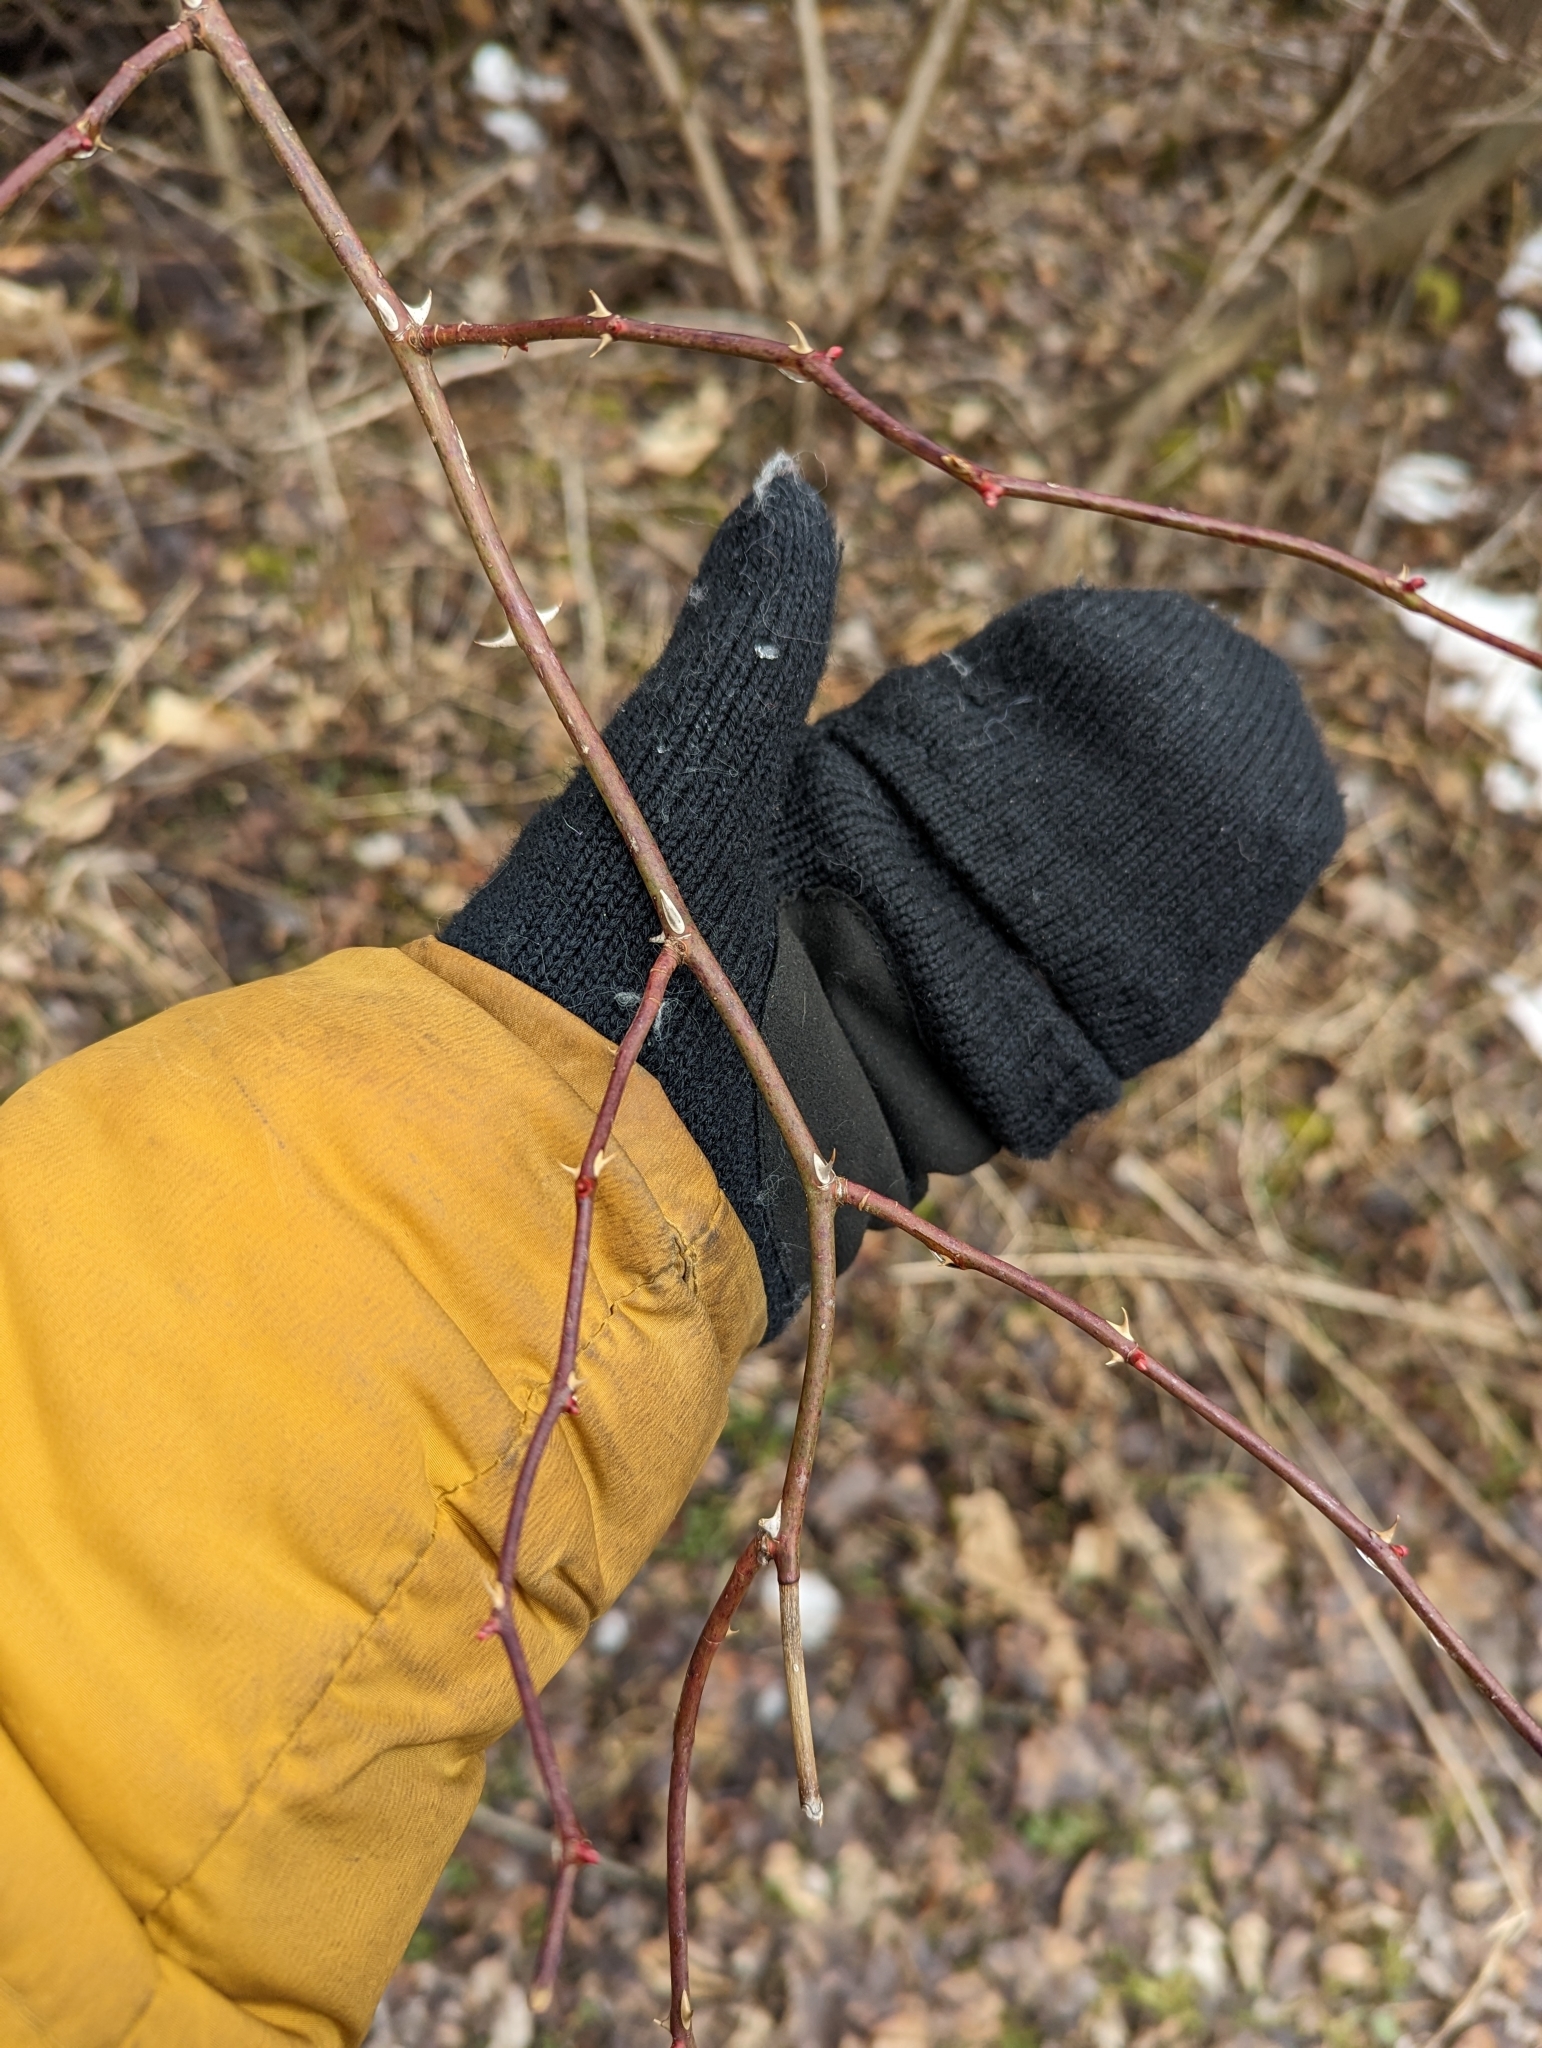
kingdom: Plantae
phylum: Tracheophyta
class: Magnoliopsida
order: Rosales
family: Rosaceae
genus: Rosa
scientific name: Rosa multiflora
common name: Multiflora rose
